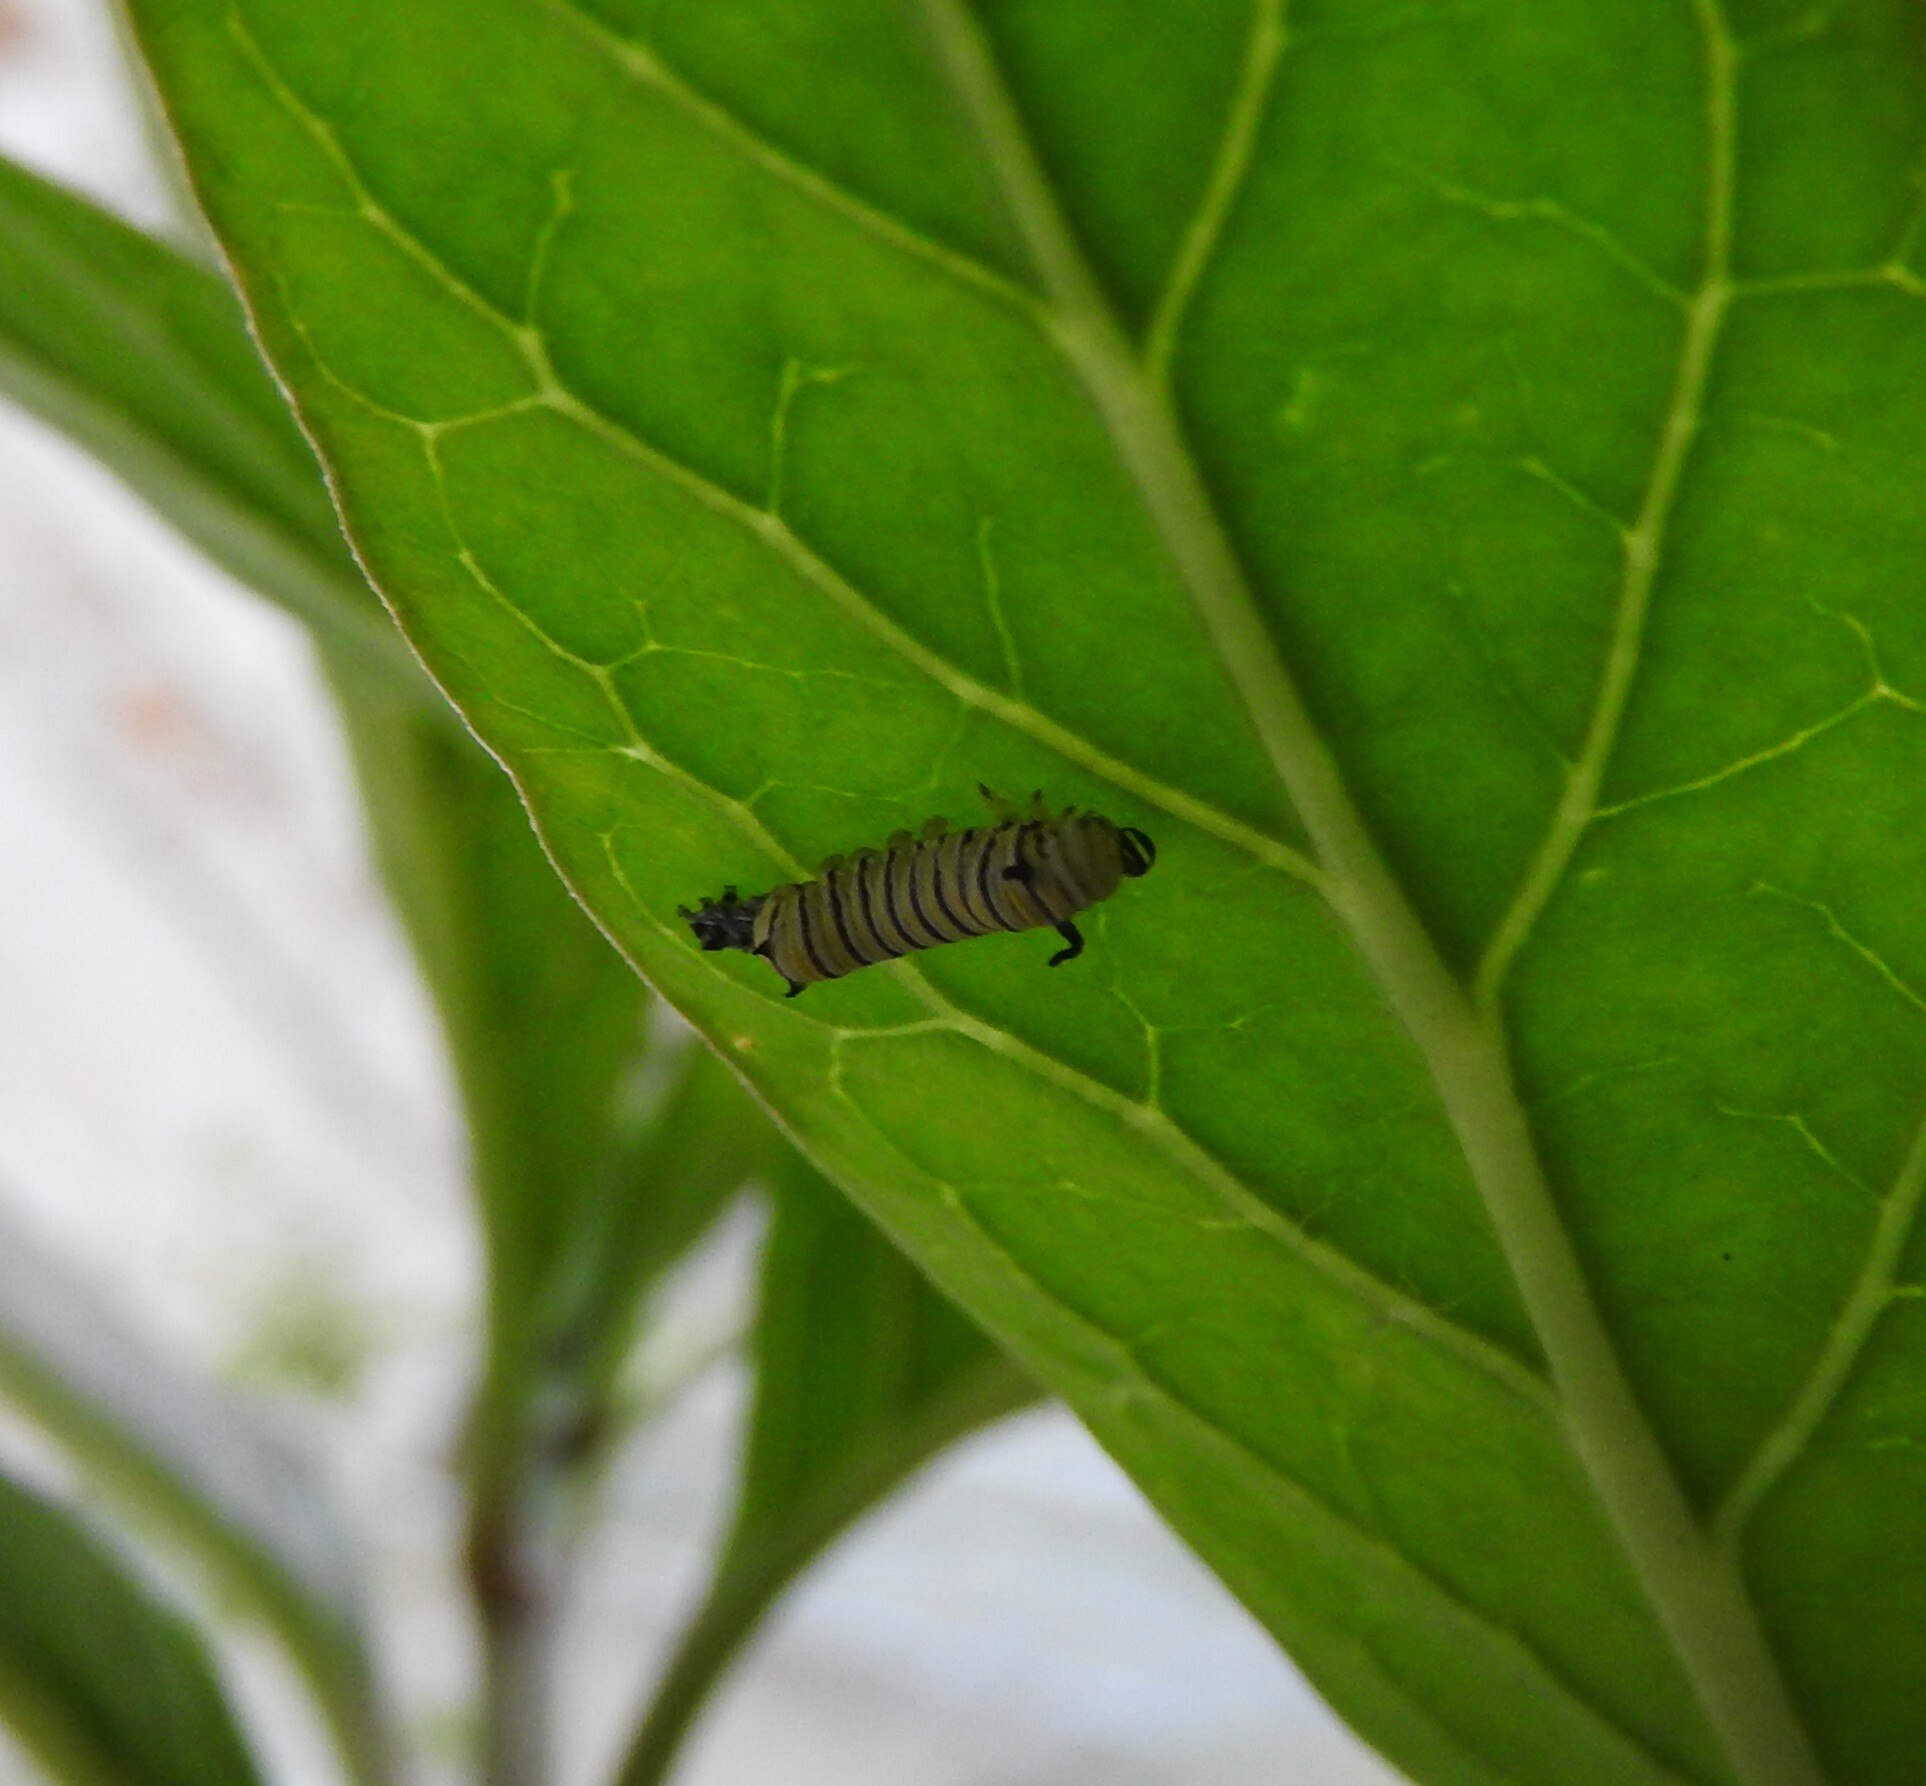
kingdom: Animalia
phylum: Arthropoda
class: Insecta
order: Lepidoptera
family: Nymphalidae
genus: Danaus
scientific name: Danaus plexippus
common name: Monarch
